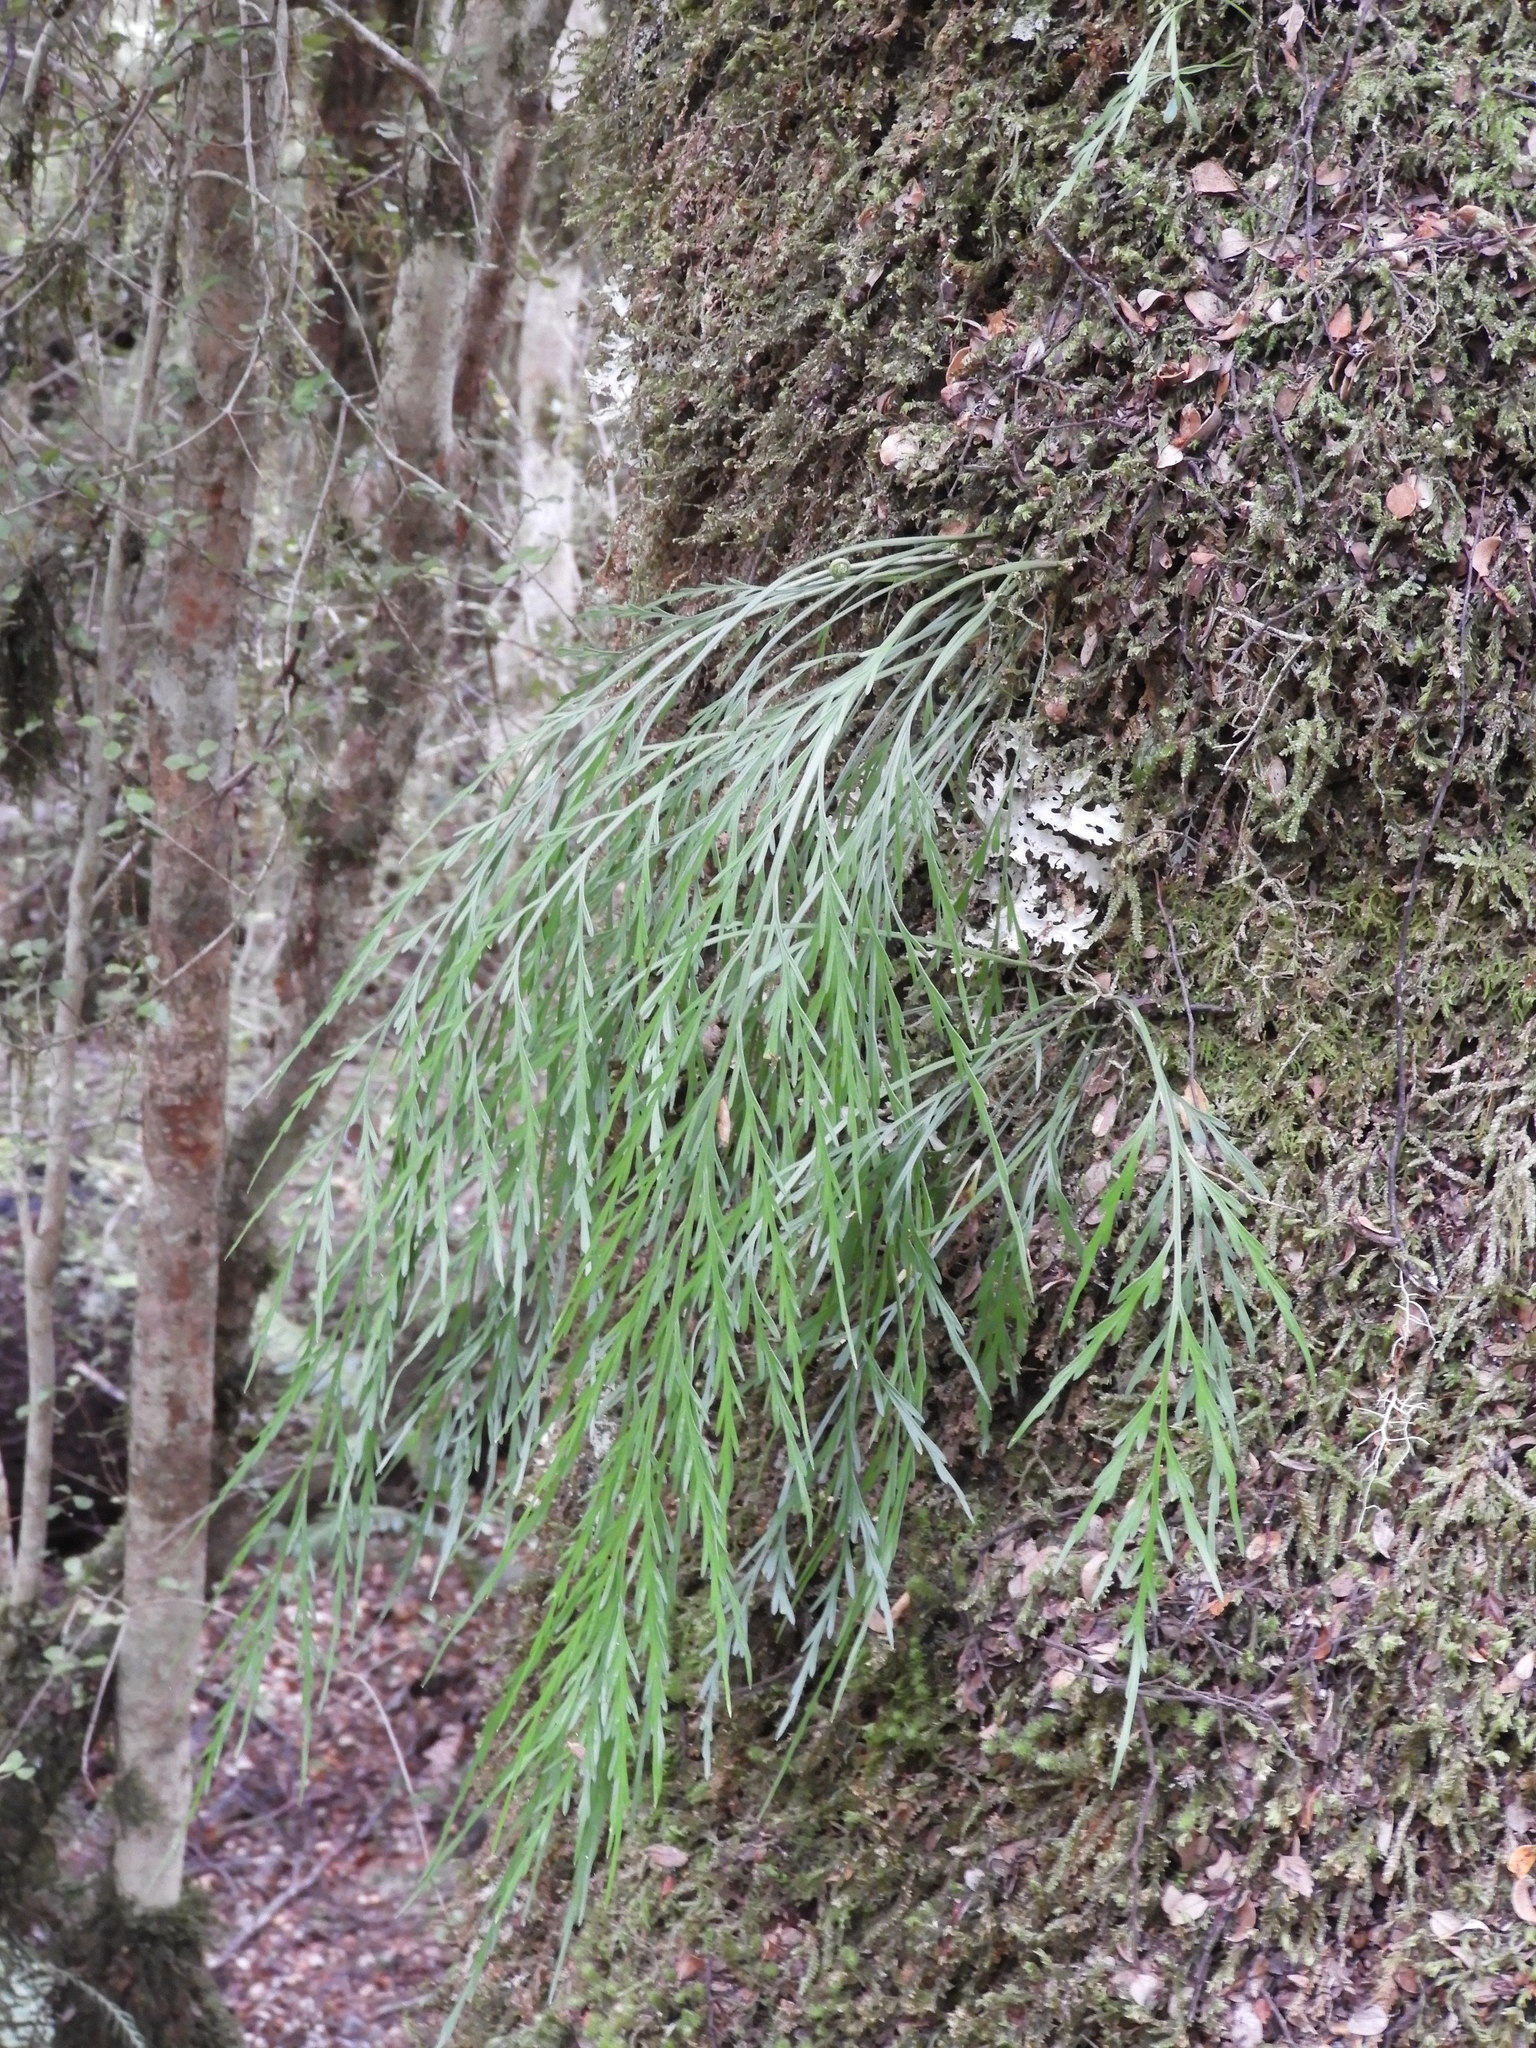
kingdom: Plantae
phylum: Tracheophyta
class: Polypodiopsida
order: Polypodiales
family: Aspleniaceae
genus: Asplenium
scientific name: Asplenium flaccidum
